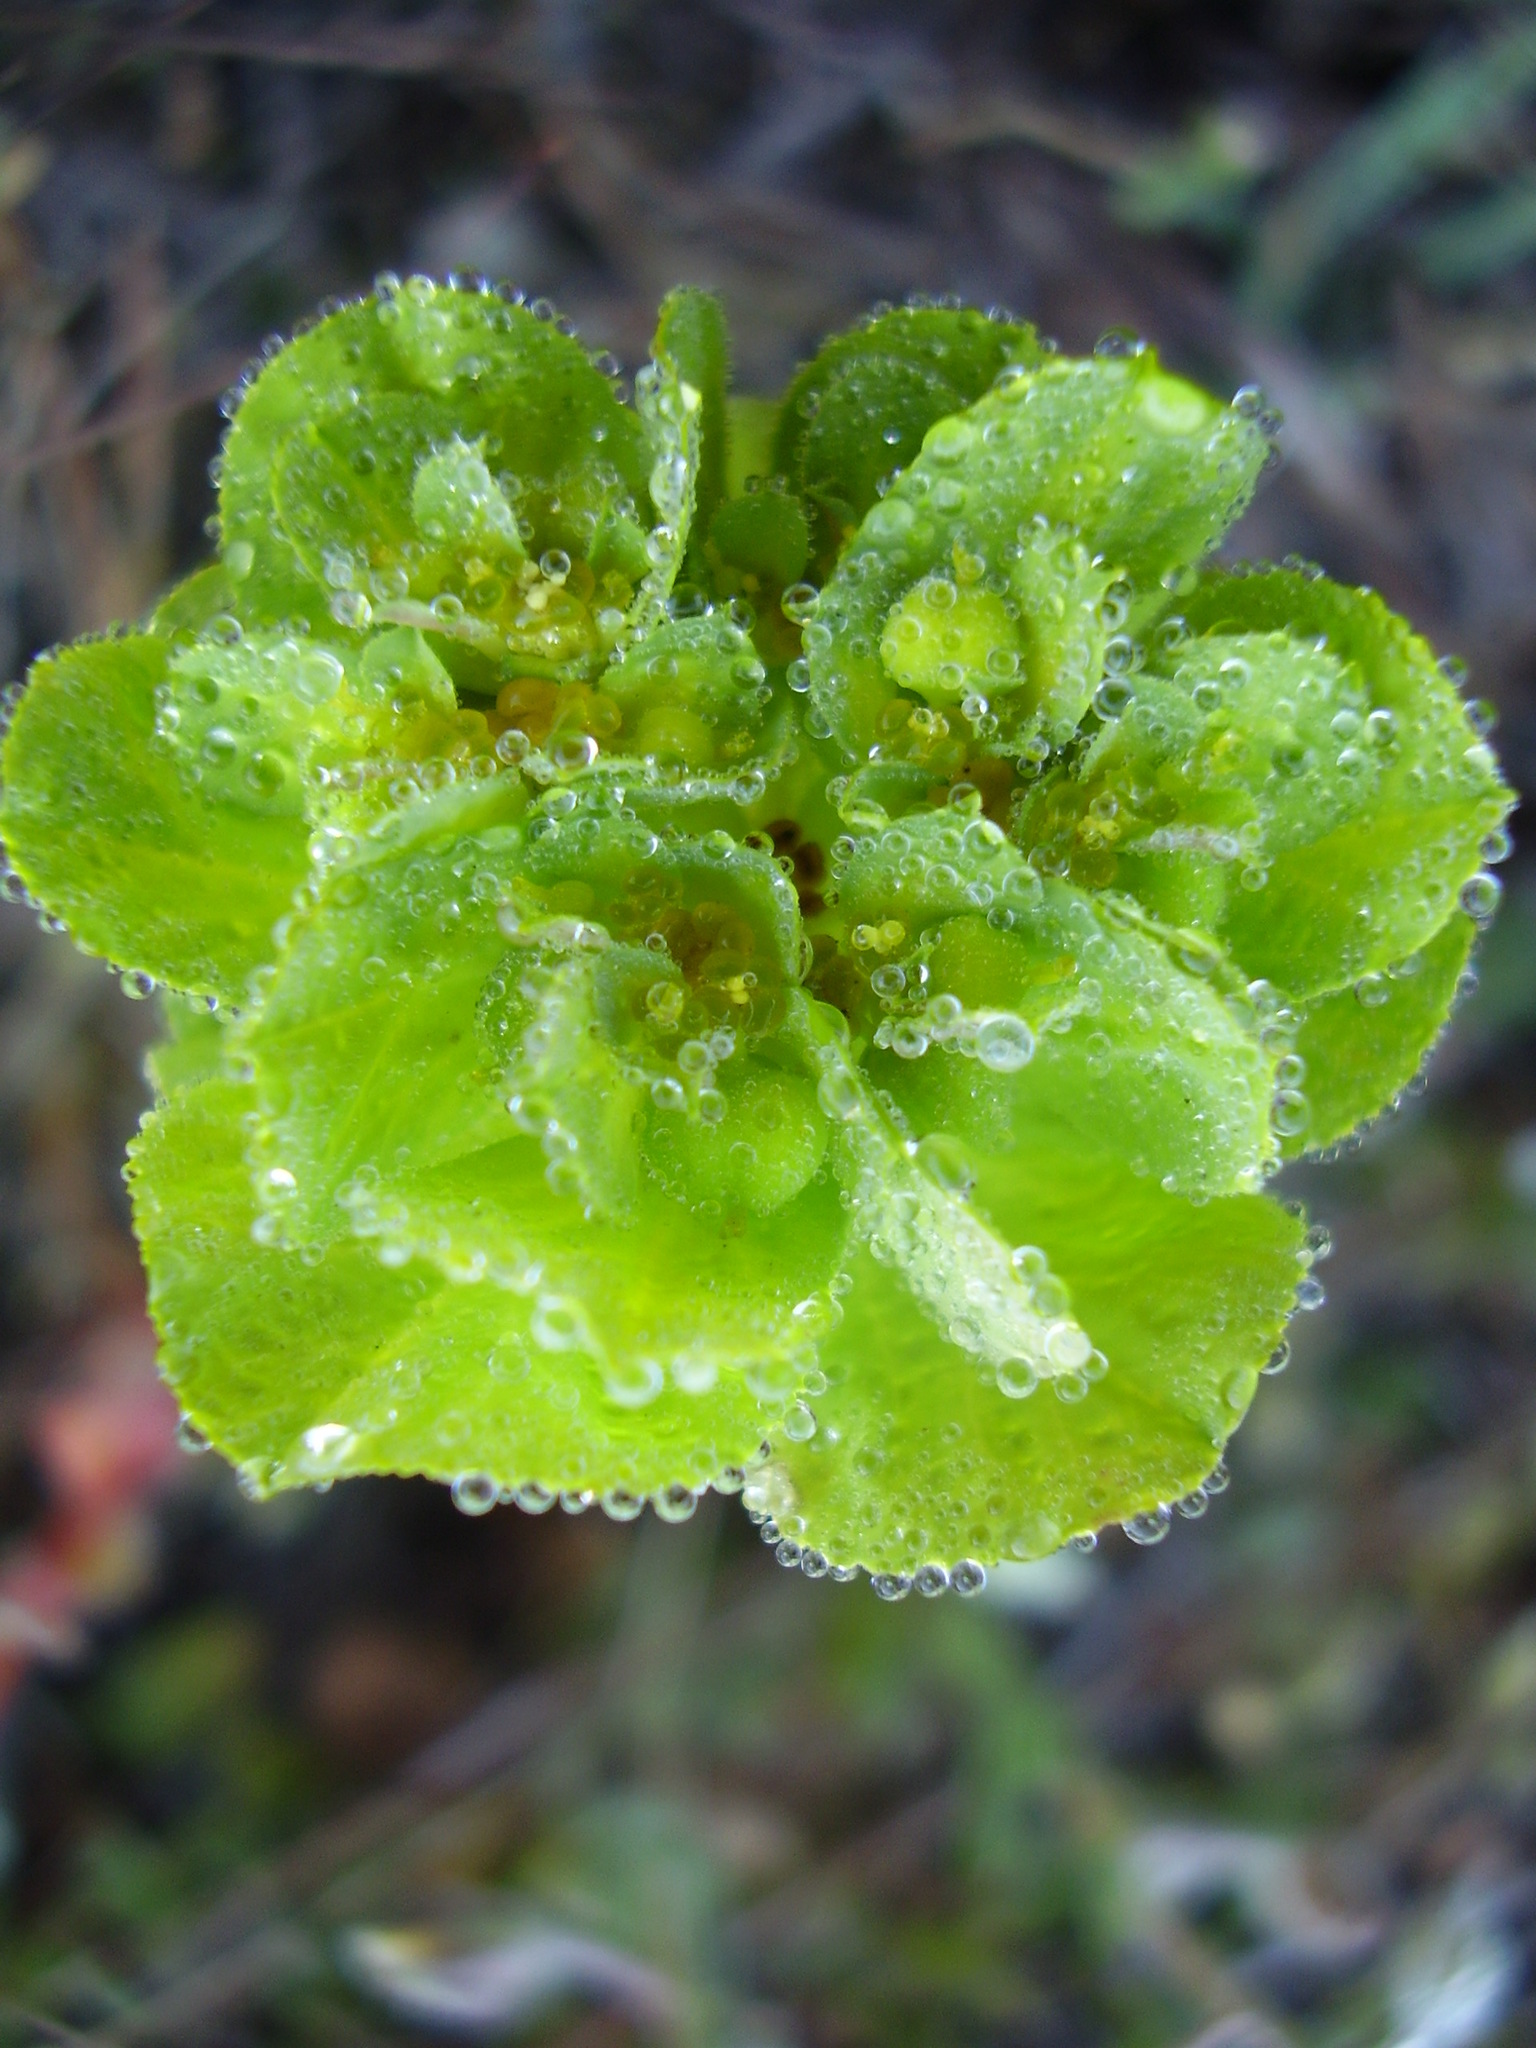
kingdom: Plantae
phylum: Tracheophyta
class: Magnoliopsida
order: Malpighiales
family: Euphorbiaceae
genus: Euphorbia
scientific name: Euphorbia helioscopia
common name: Sun spurge
